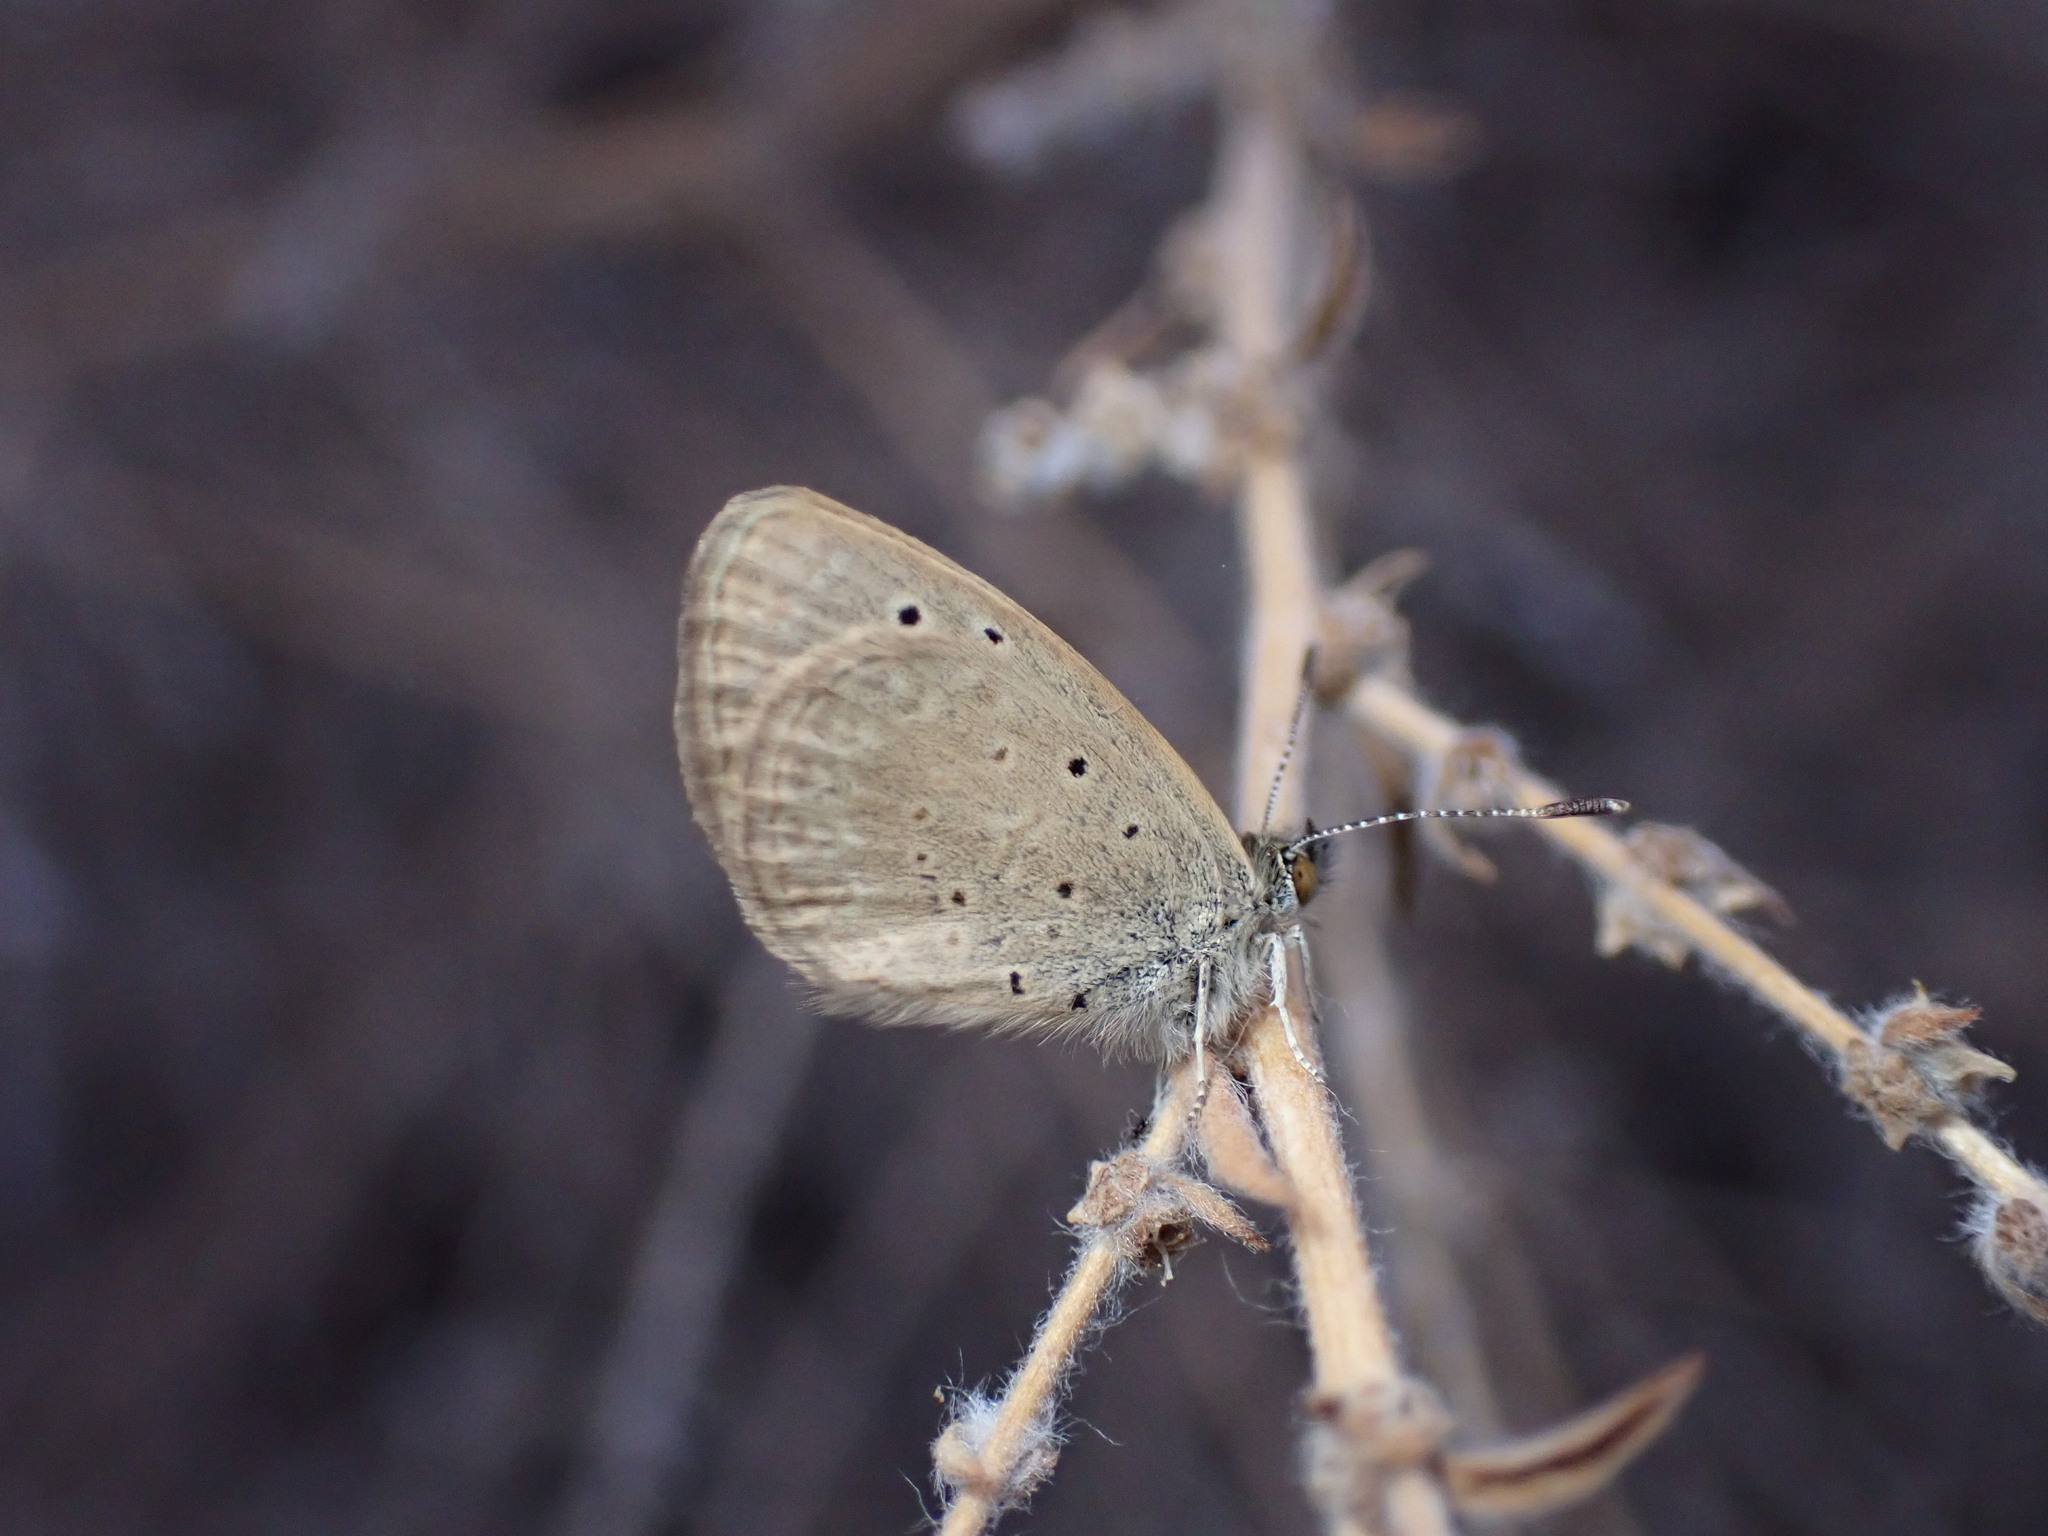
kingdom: Animalia
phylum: Arthropoda
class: Insecta
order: Lepidoptera
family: Lycaenidae
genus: Zizeeria
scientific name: Zizeeria knysna
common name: African grass blue
